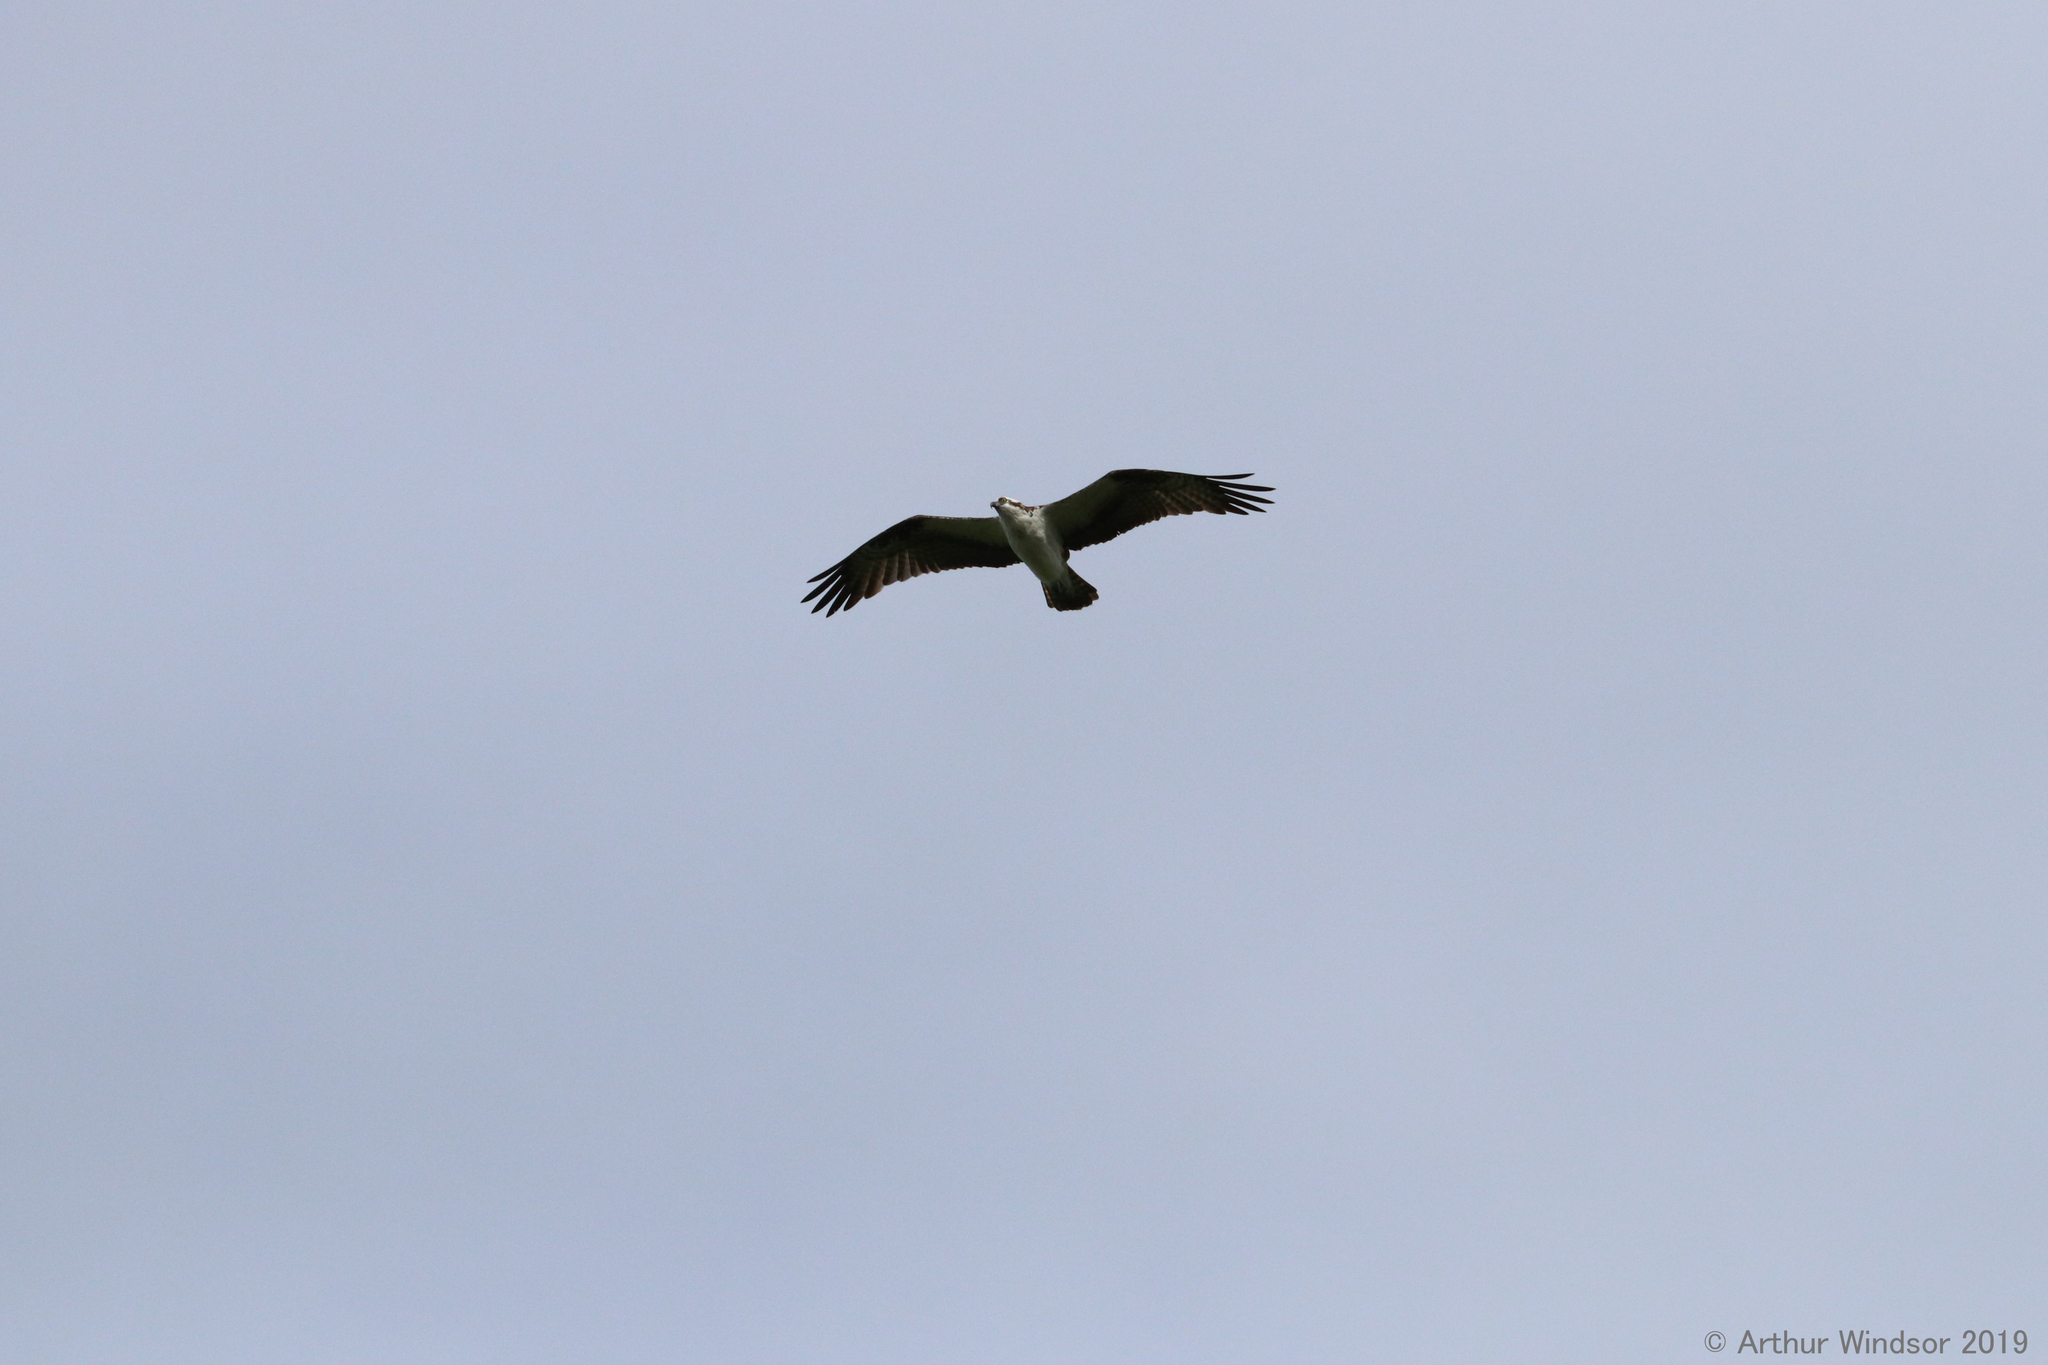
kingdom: Animalia
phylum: Chordata
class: Aves
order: Accipitriformes
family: Pandionidae
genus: Pandion
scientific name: Pandion haliaetus
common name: Osprey
